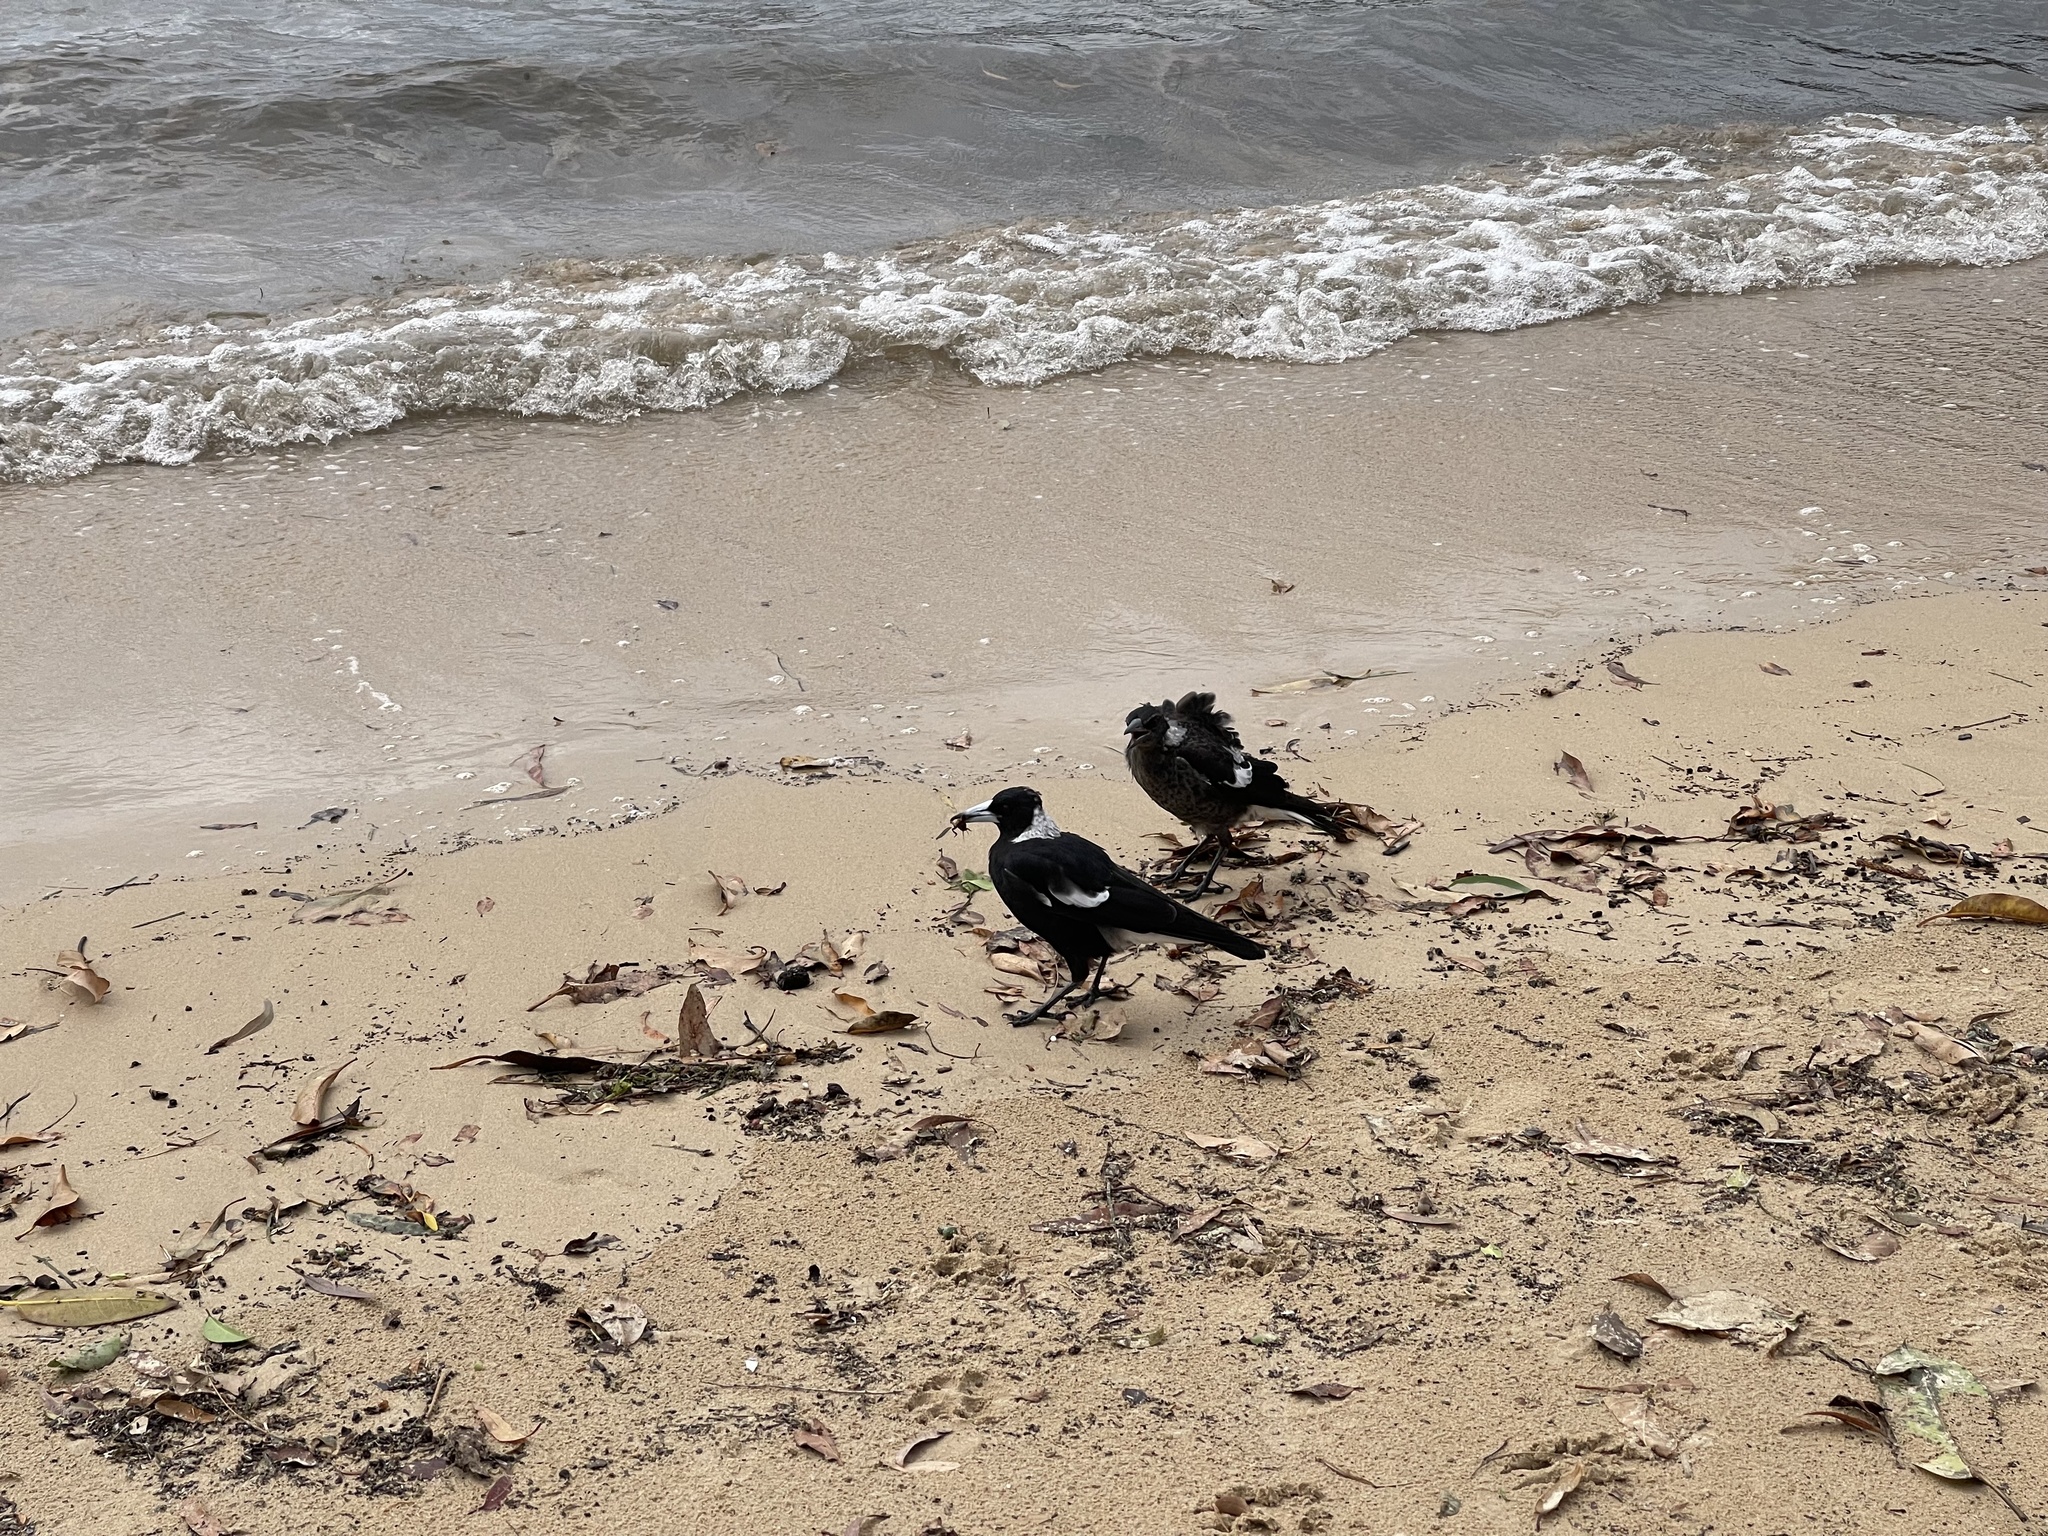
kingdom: Animalia
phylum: Chordata
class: Aves
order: Passeriformes
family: Cracticidae
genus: Gymnorhina
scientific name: Gymnorhina tibicen
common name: Australian magpie
